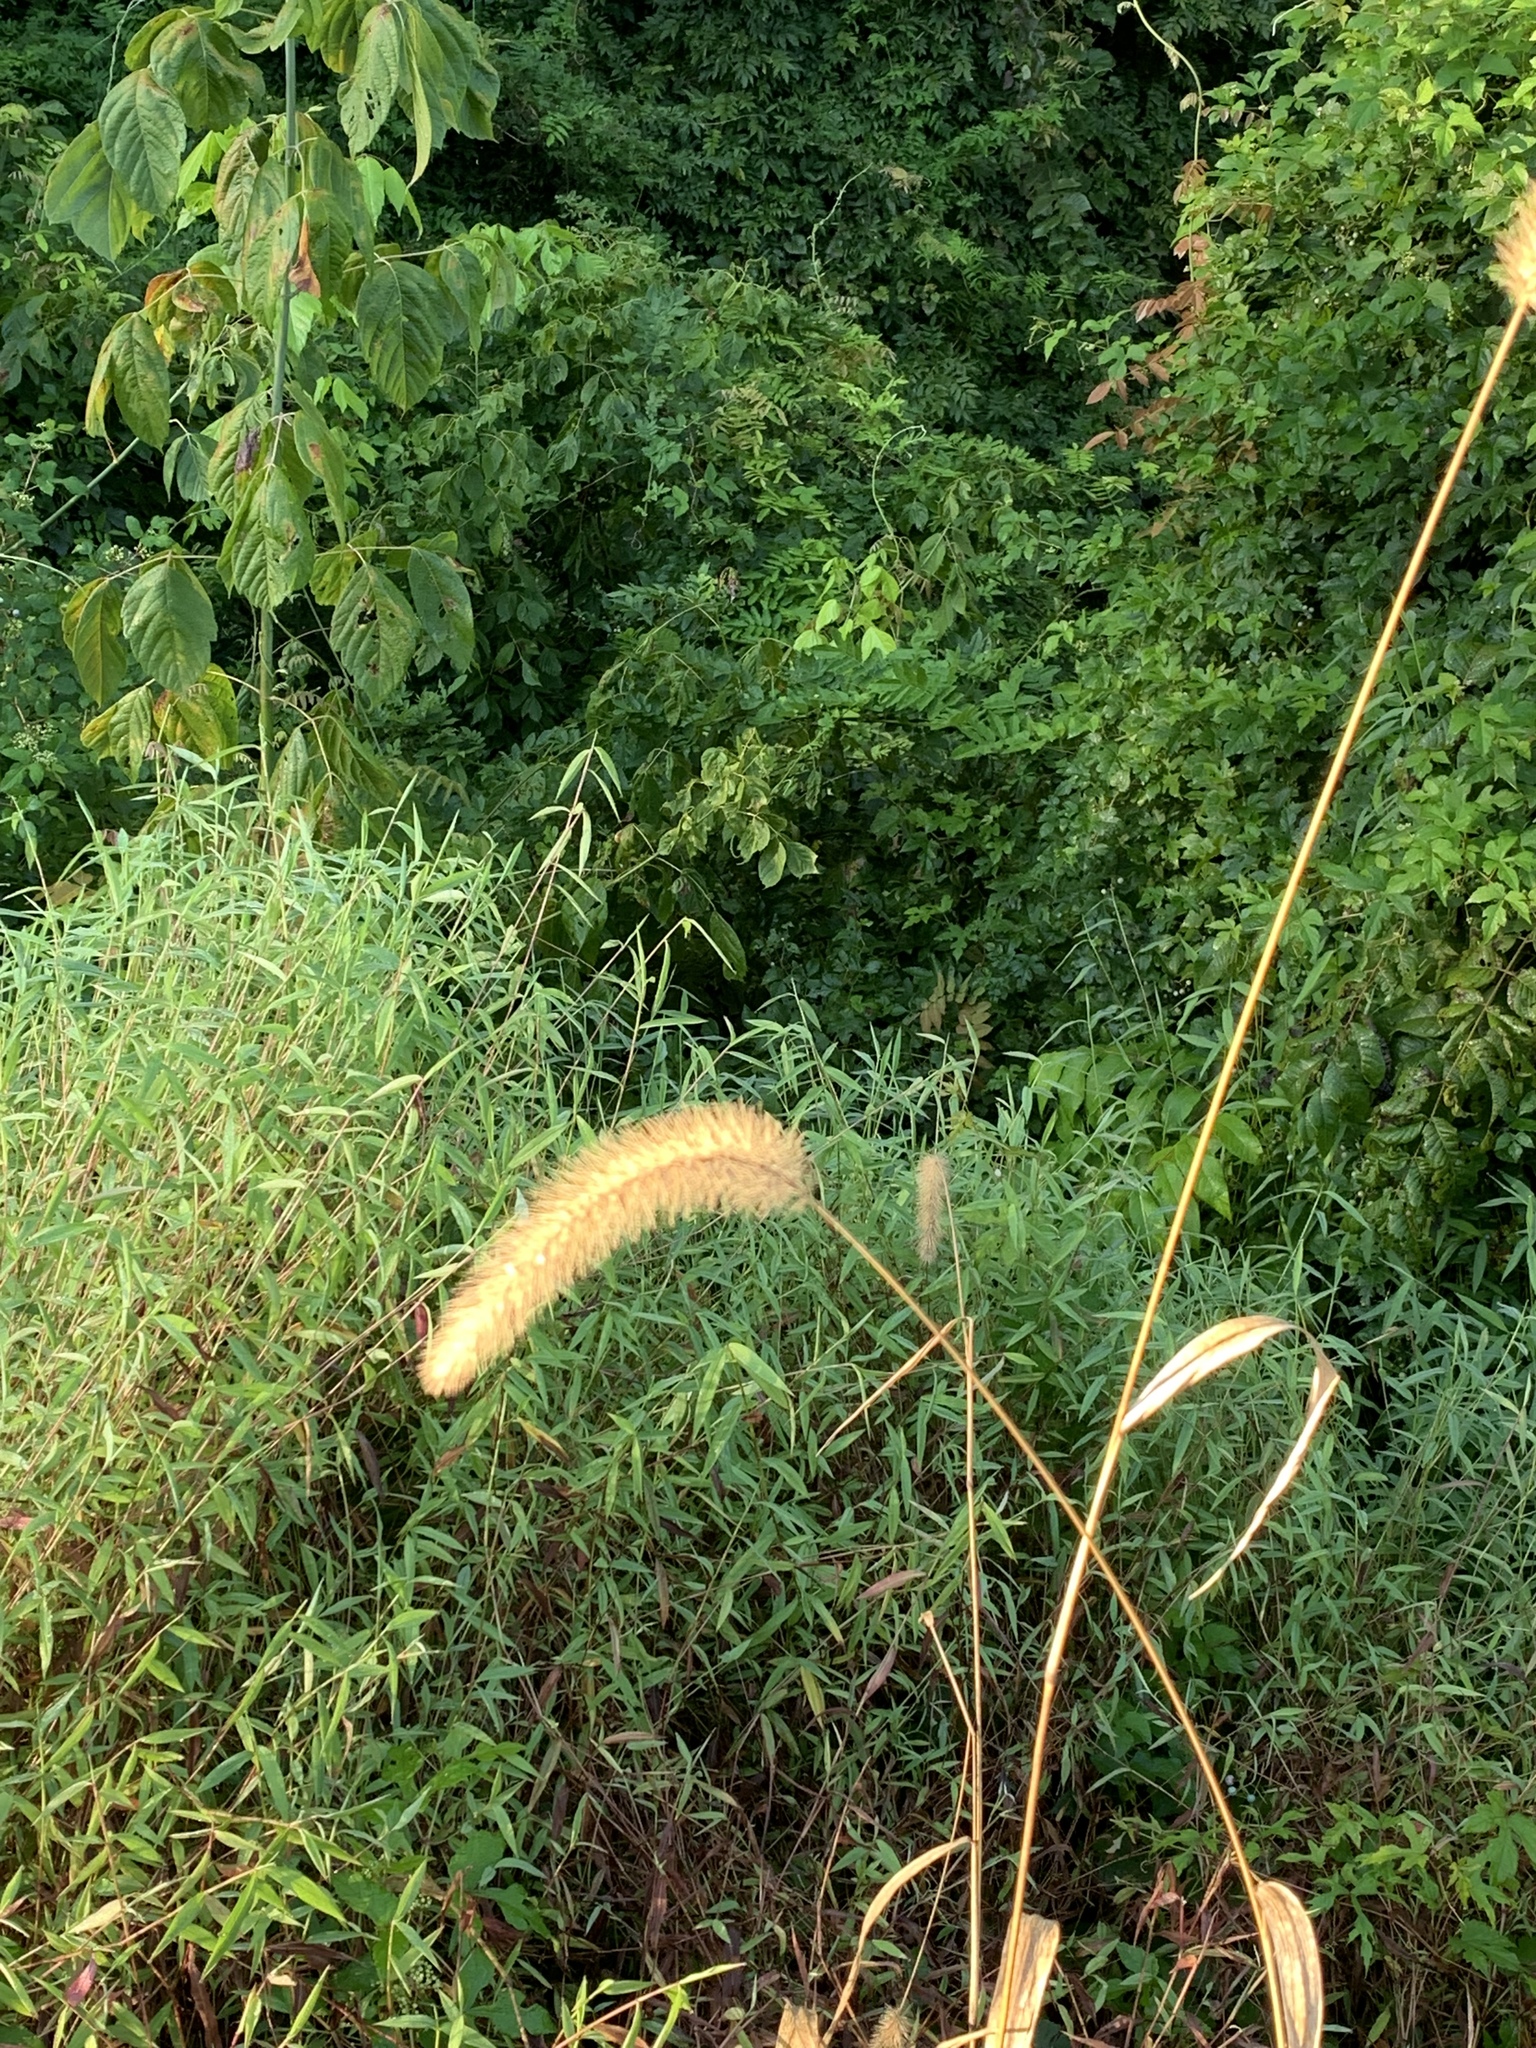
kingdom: Plantae
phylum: Tracheophyta
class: Liliopsida
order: Poales
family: Poaceae
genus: Setaria
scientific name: Setaria faberi
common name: Nodding bristle-grass
